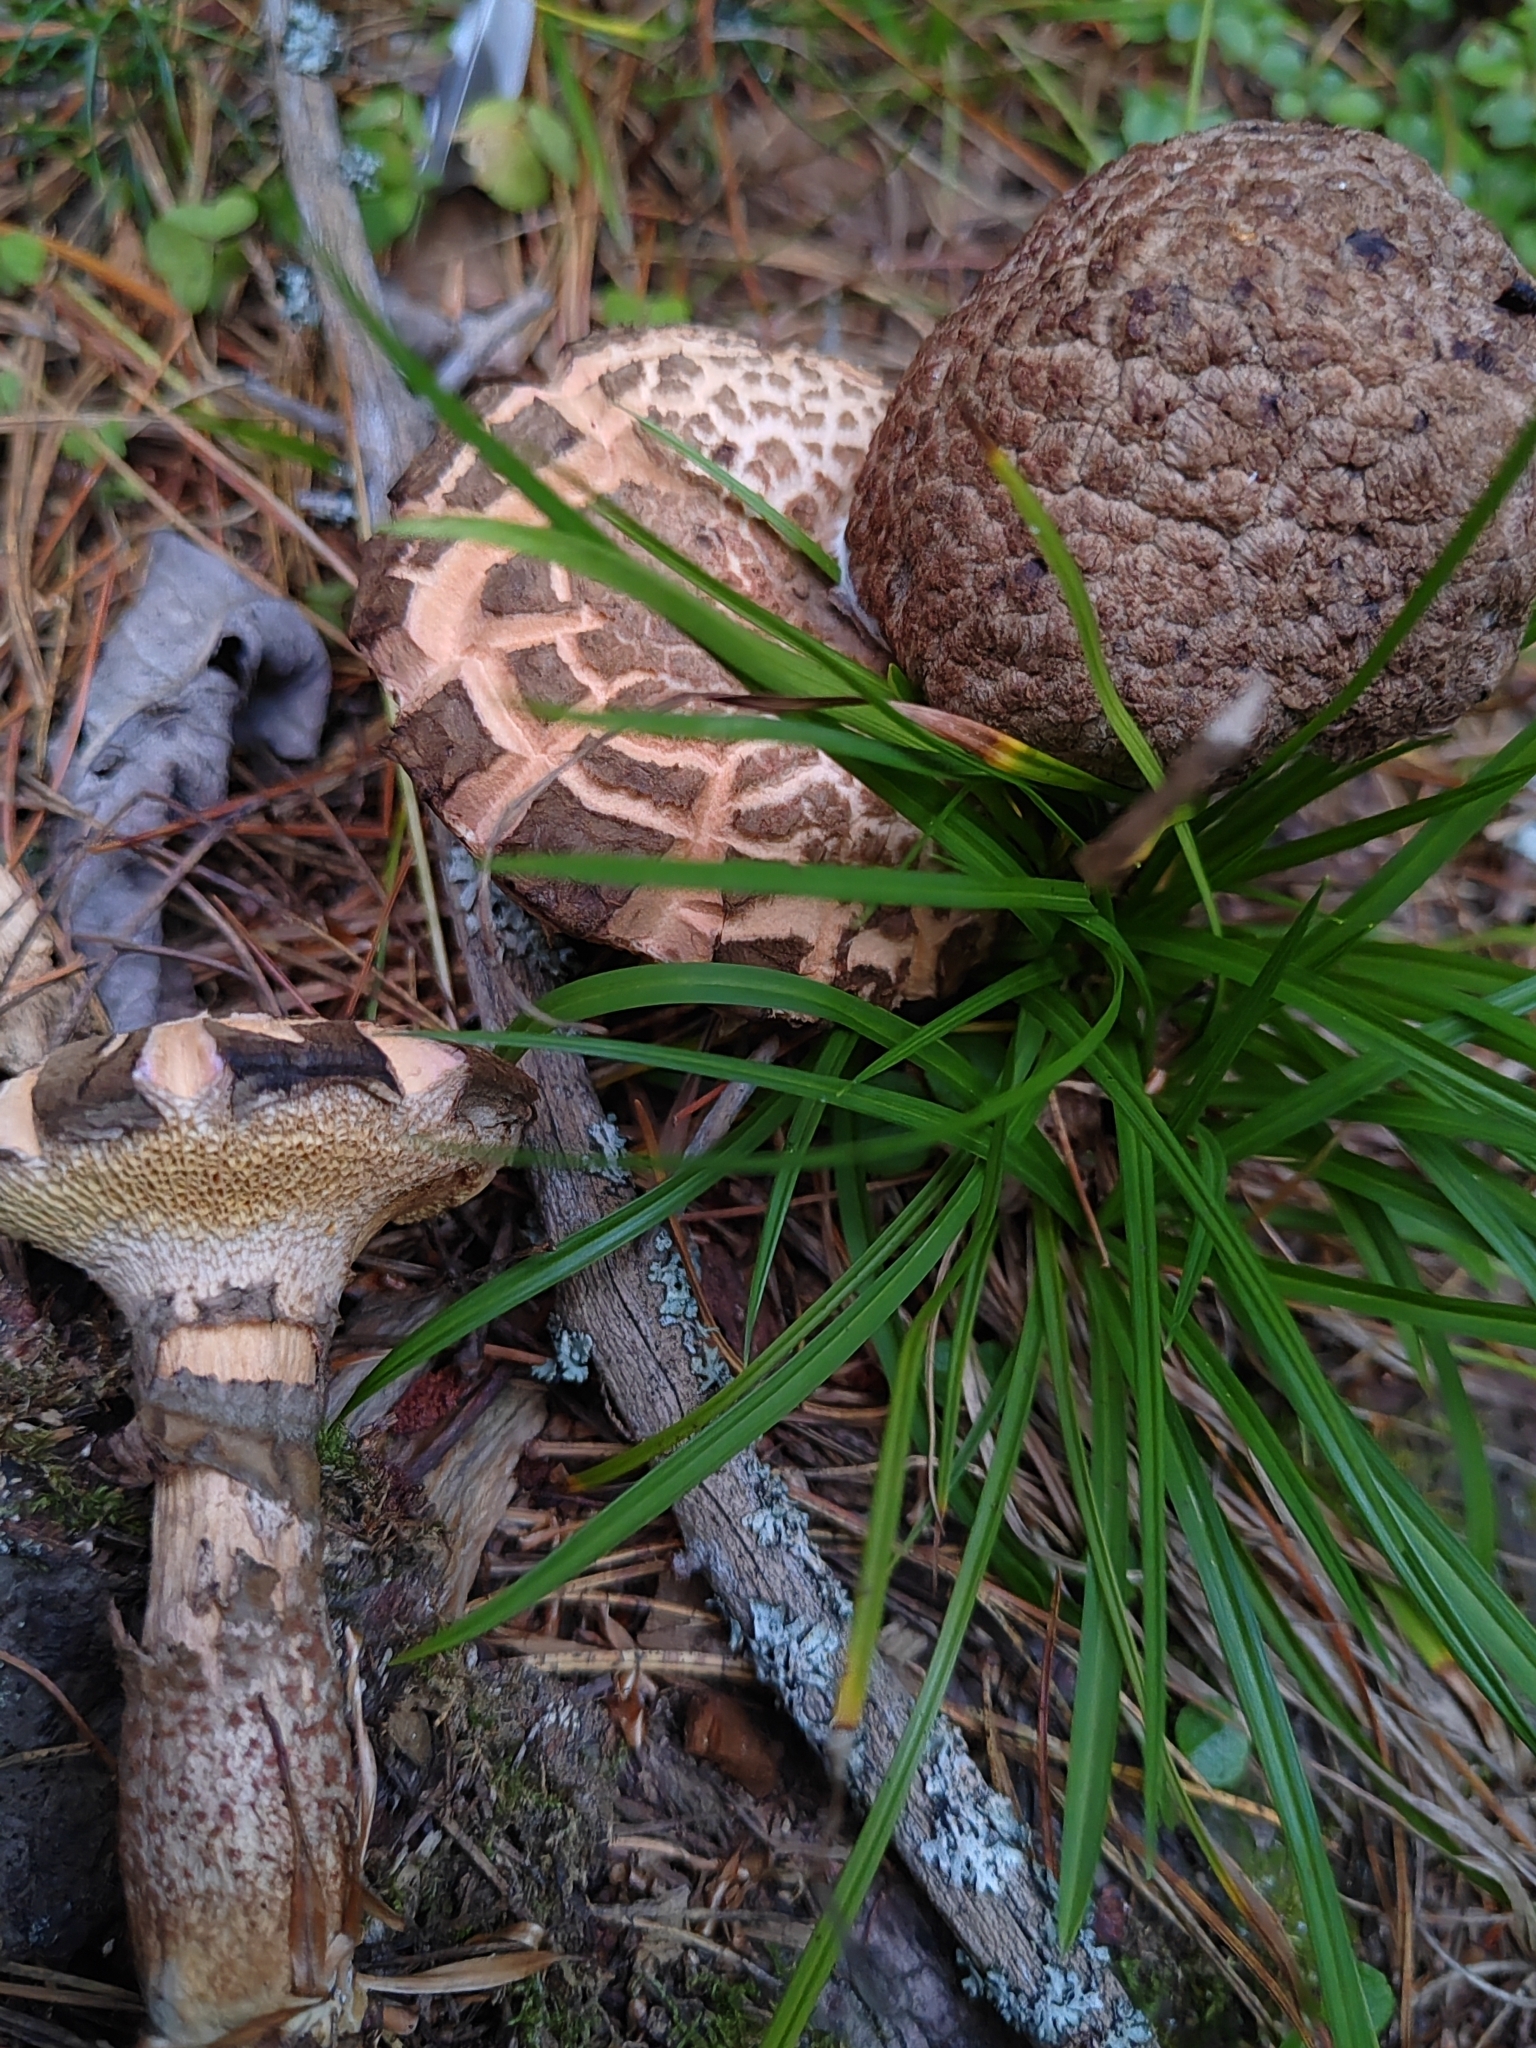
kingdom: Fungi
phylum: Basidiomycota
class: Agaricomycetes
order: Boletales
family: Suillaceae
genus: Suillus
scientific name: Suillus spraguei
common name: Painted suillus
